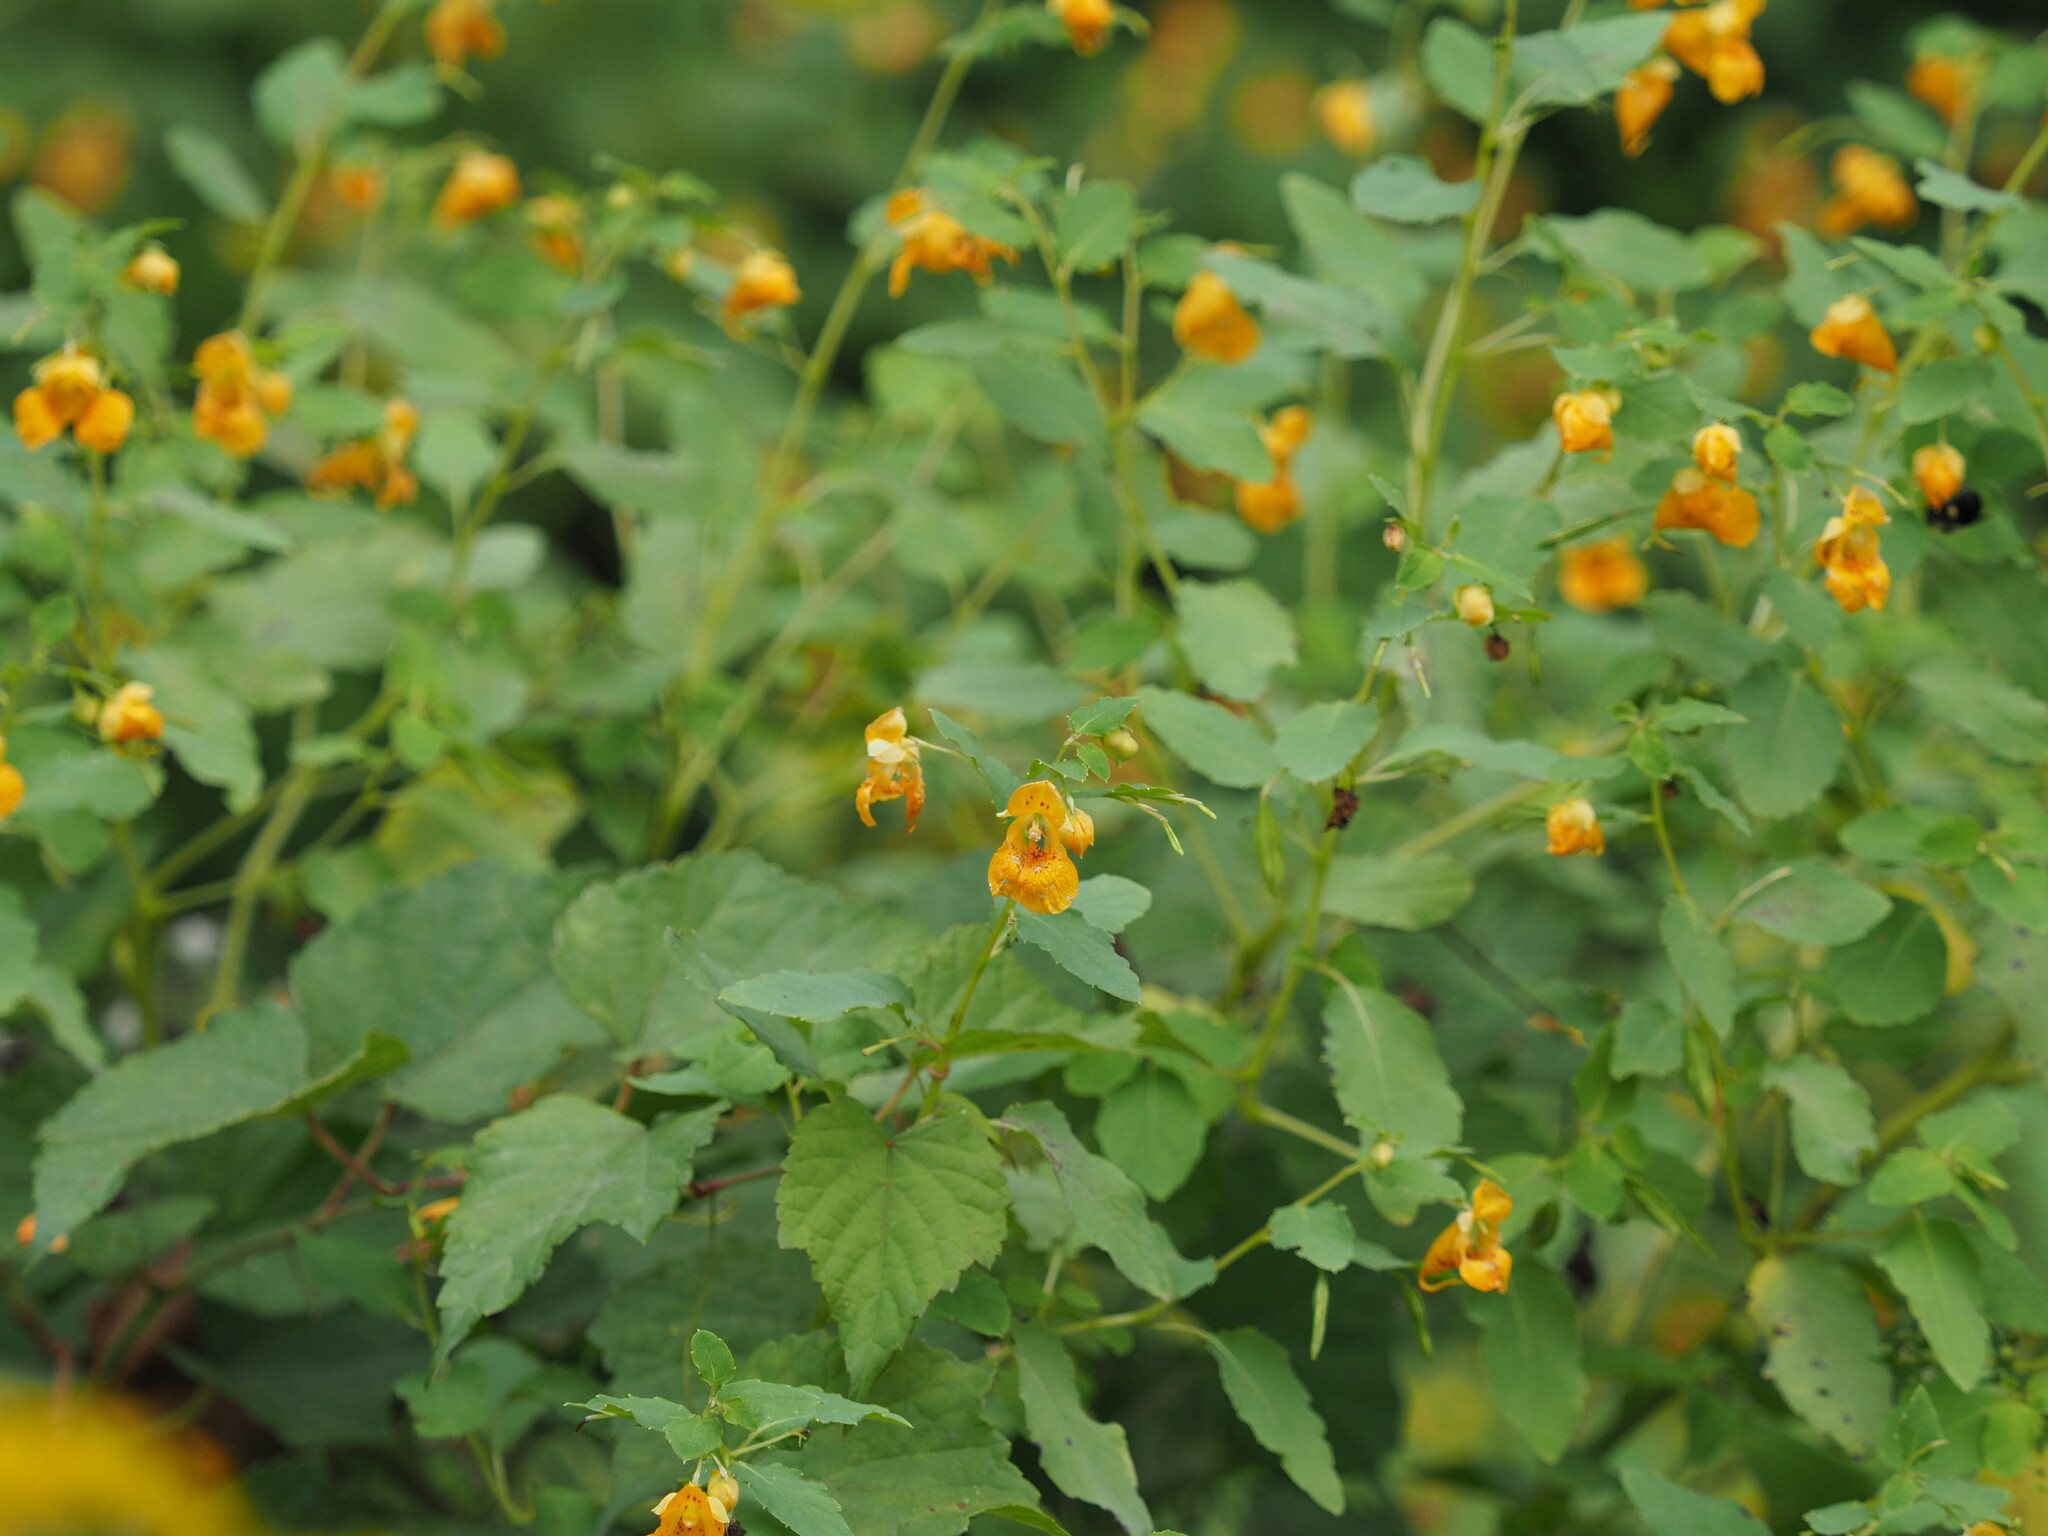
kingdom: Plantae
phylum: Tracheophyta
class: Magnoliopsida
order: Ericales
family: Balsaminaceae
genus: Impatiens
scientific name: Impatiens capensis
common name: Orange balsam
